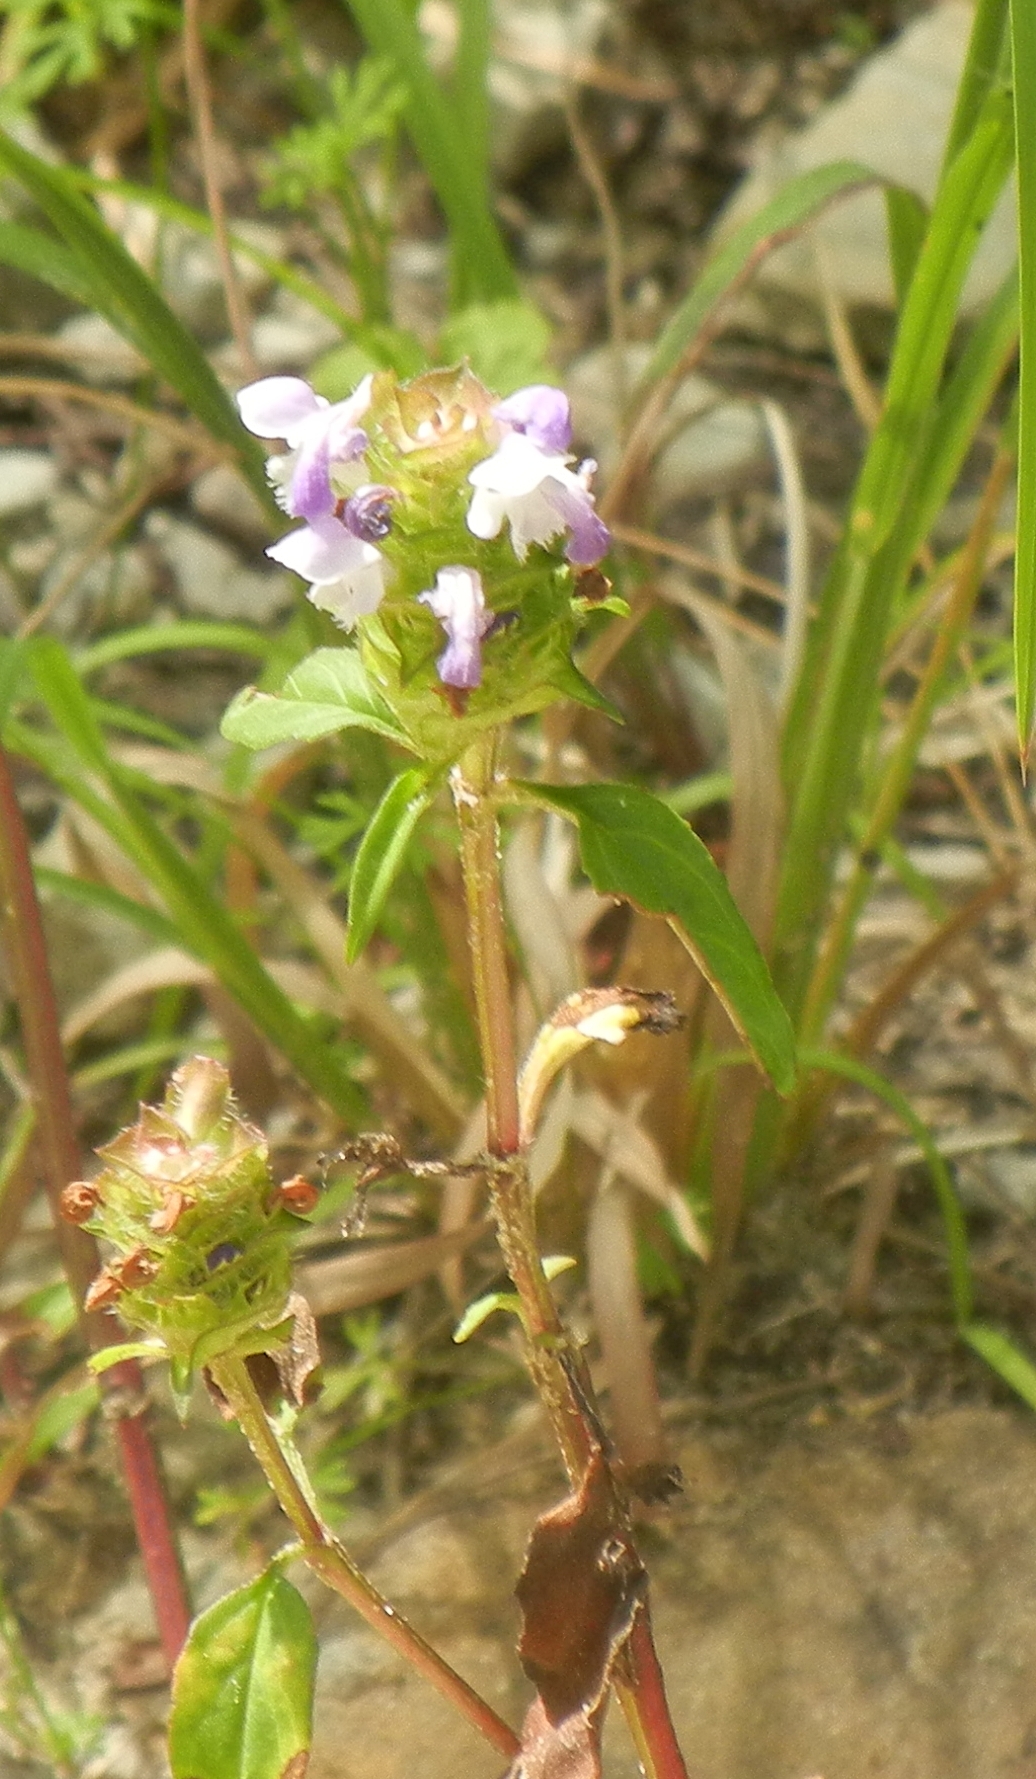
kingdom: Plantae
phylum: Tracheophyta
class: Magnoliopsida
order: Lamiales
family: Lamiaceae
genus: Prunella
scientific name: Prunella vulgaris
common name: Heal-all
